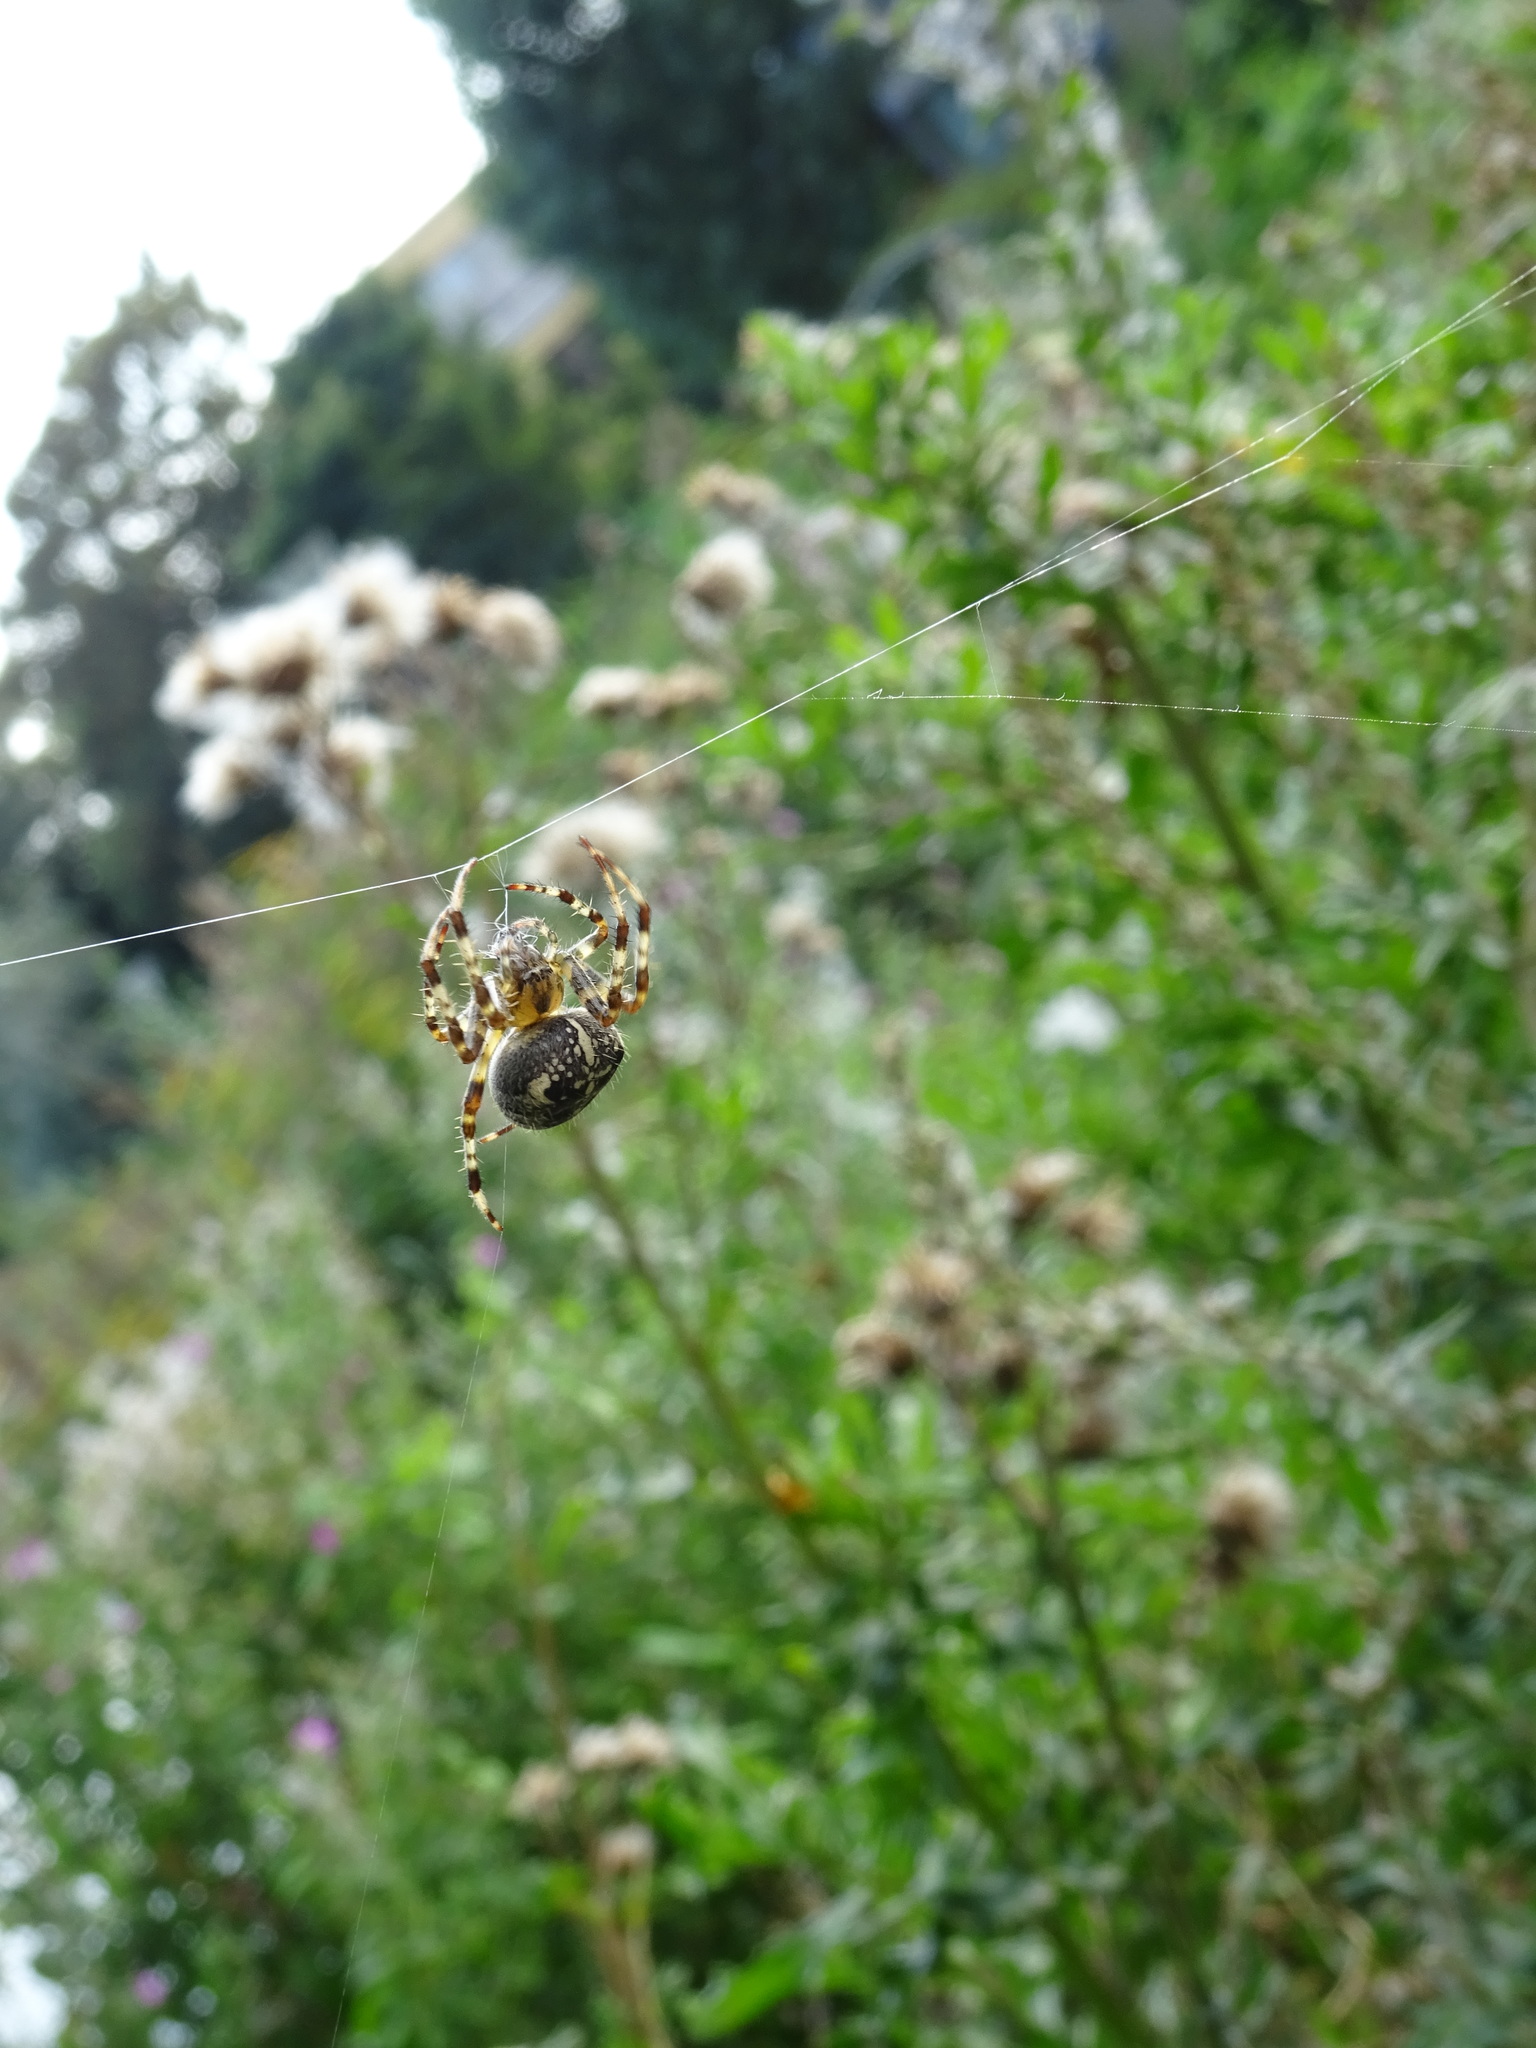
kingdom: Animalia
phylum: Arthropoda
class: Arachnida
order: Araneae
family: Araneidae
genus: Araneus
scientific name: Araneus diadematus
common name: Cross orbweaver
